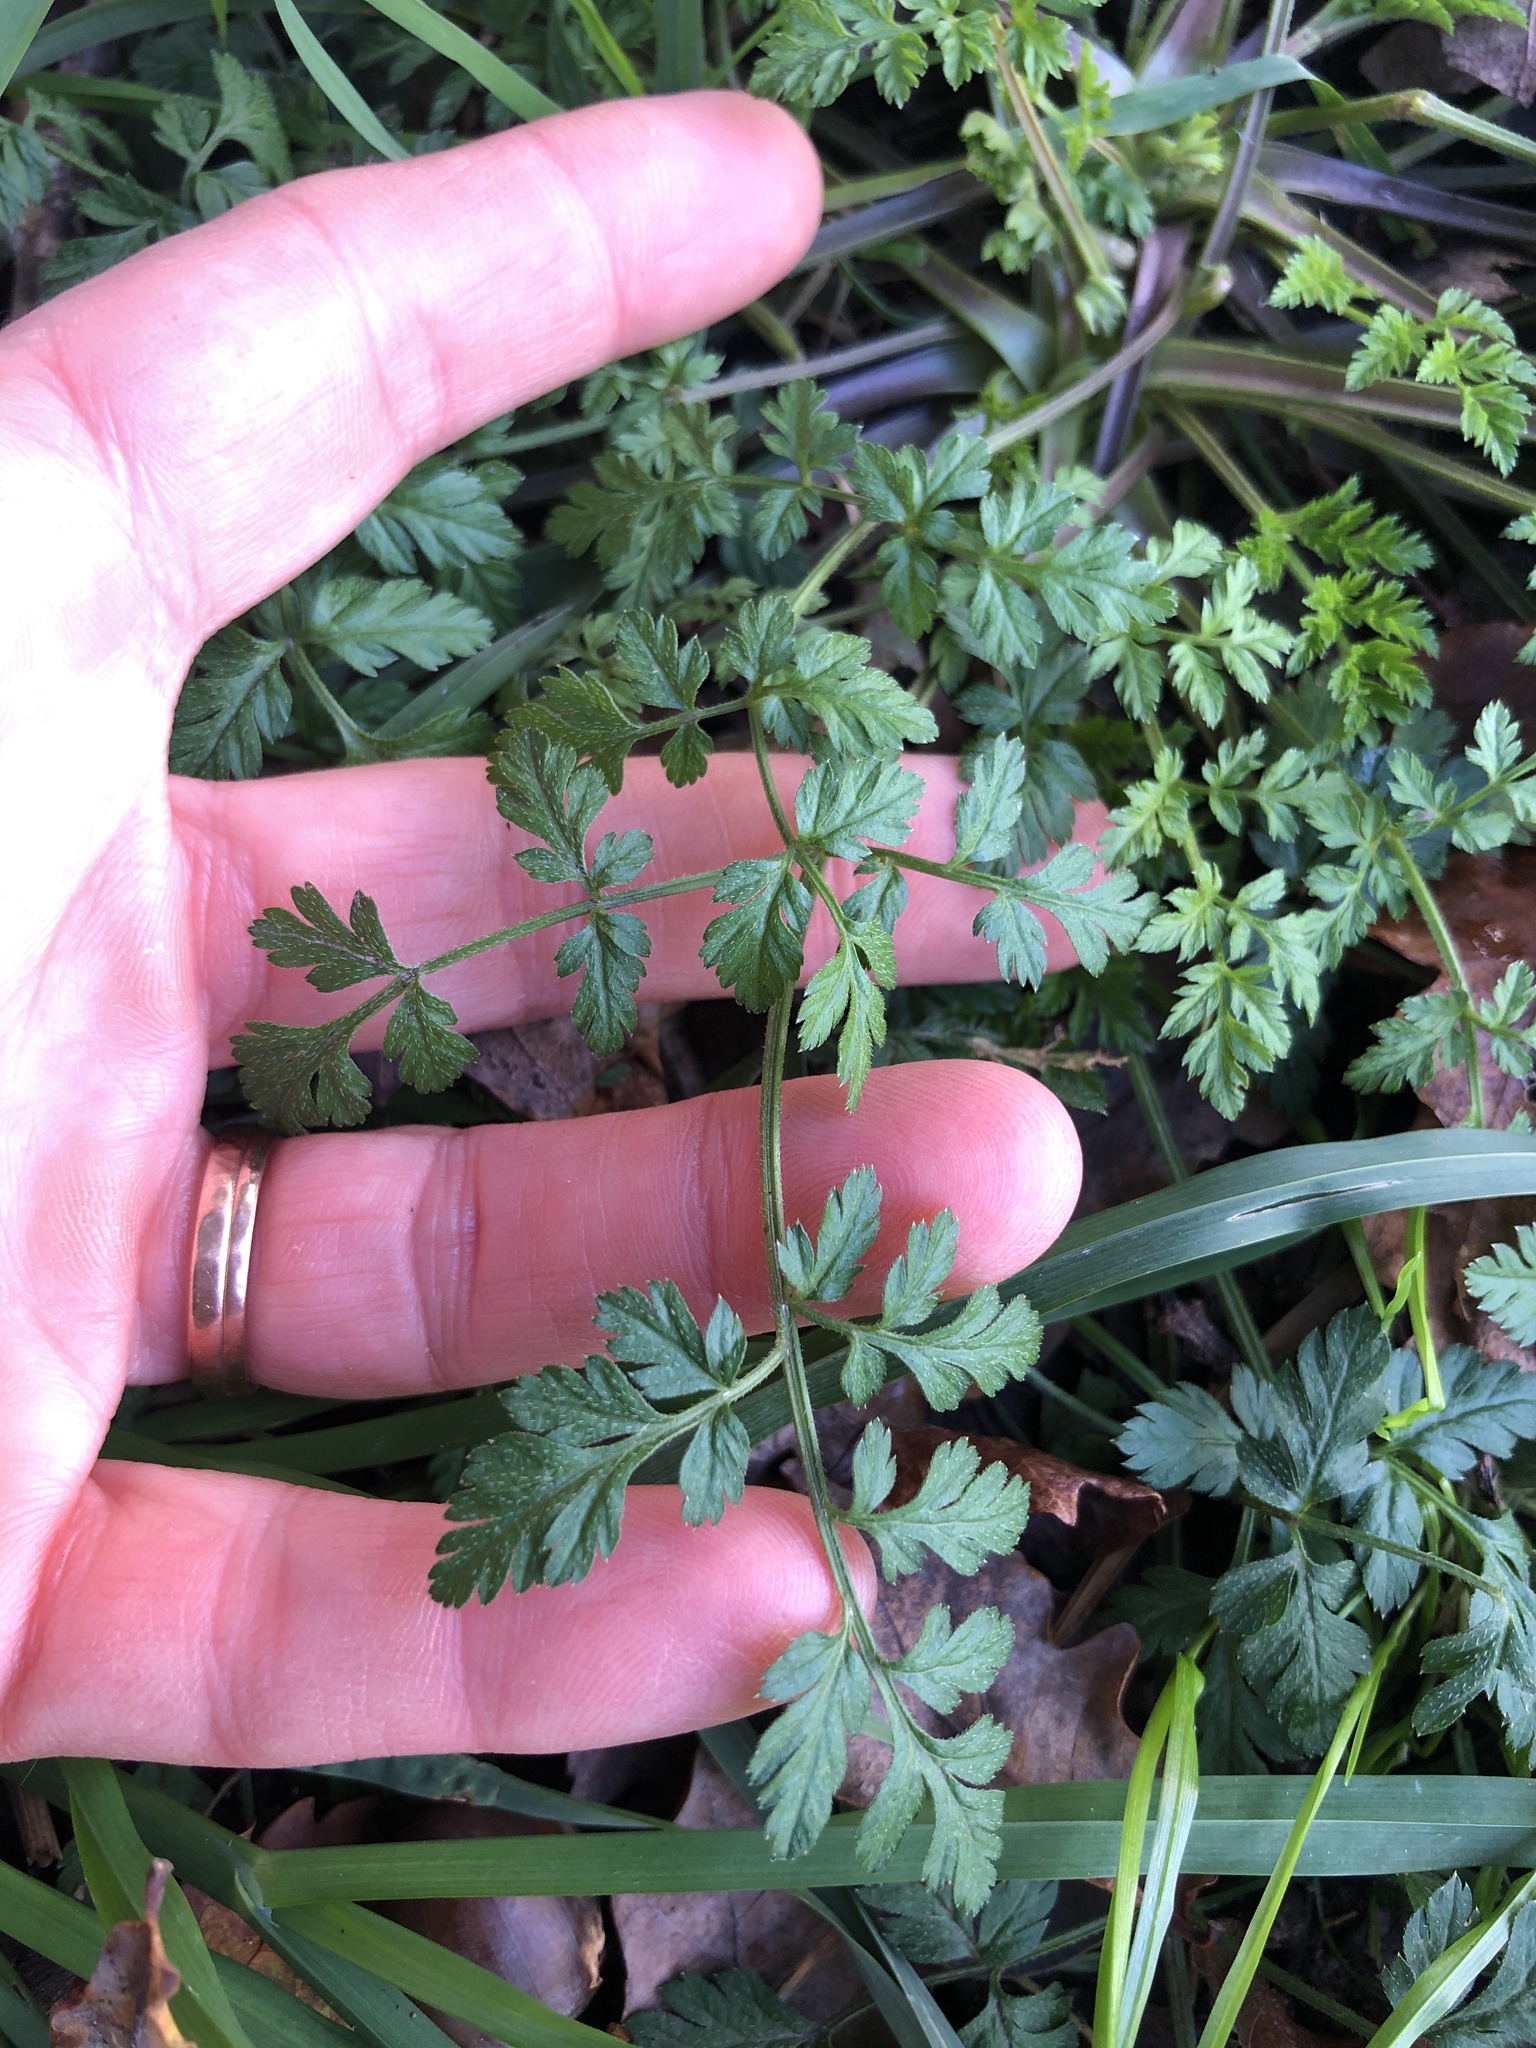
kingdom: Plantae
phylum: Tracheophyta
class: Magnoliopsida
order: Apiales
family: Apiaceae
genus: Anthriscus
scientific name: Anthriscus sylvestris
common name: Cow parsley
